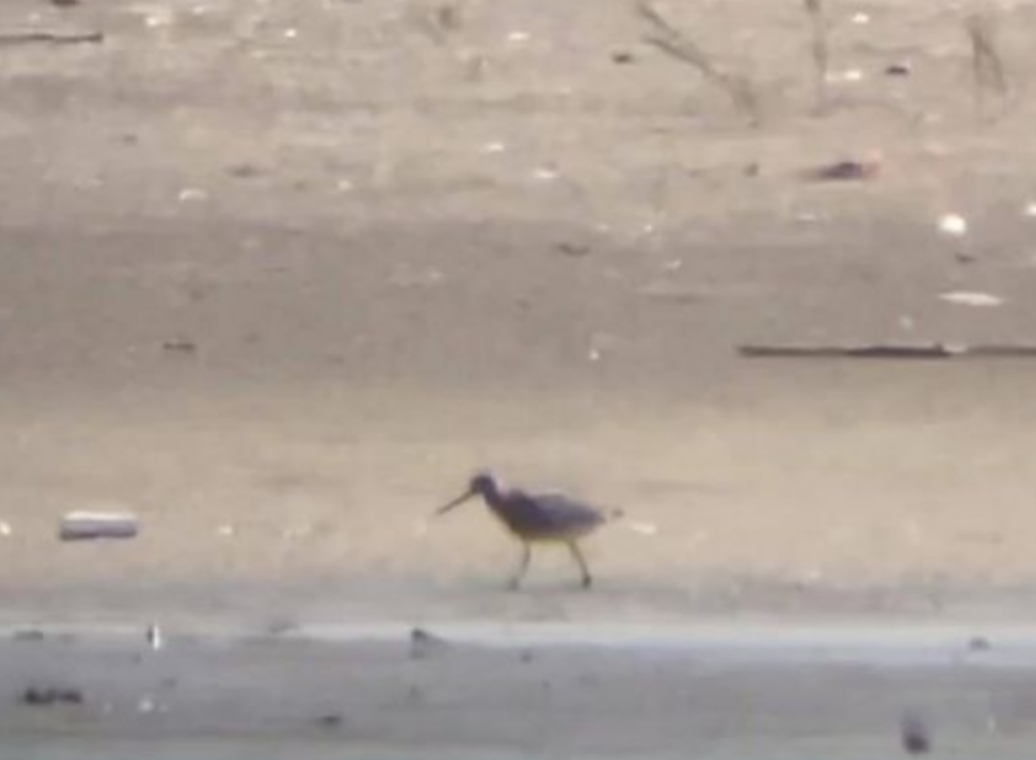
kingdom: Animalia
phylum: Chordata
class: Aves
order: Charadriiformes
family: Scolopacidae
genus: Limosa
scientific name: Limosa lapponica
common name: Bar-tailed godwit
